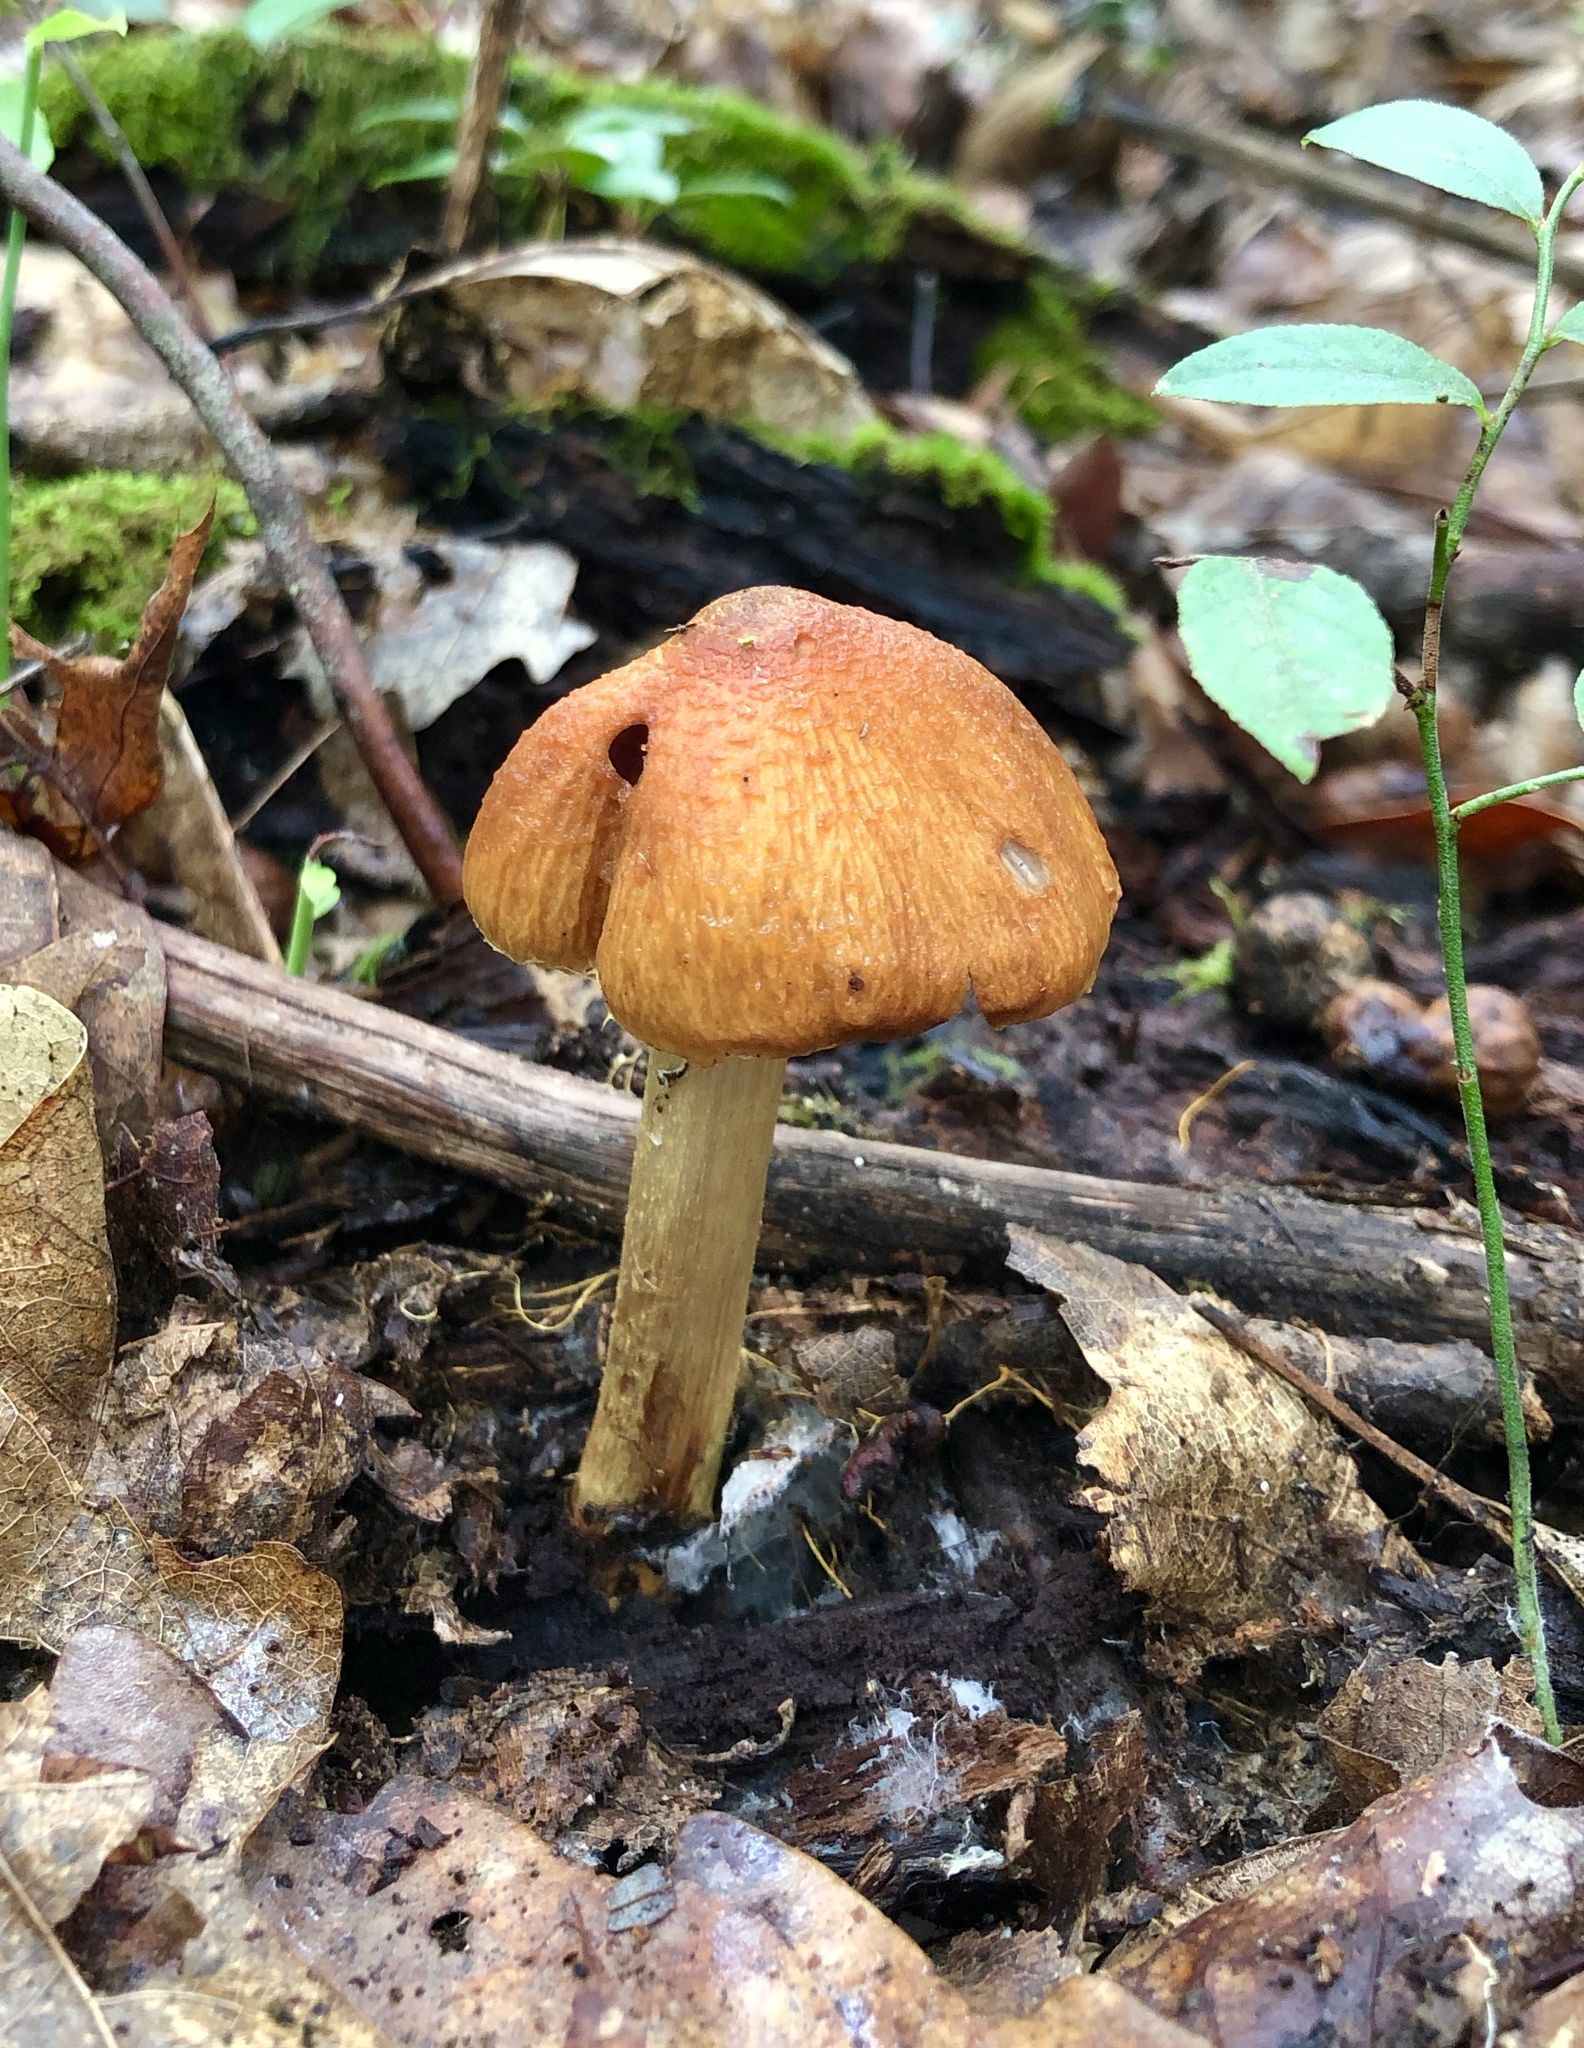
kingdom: Fungi
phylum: Basidiomycota
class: Agaricomycetes
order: Agaricales
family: Cortinariaceae
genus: Cortinarius
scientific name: Cortinarius corrugatus
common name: Wrinkled cortinarius
